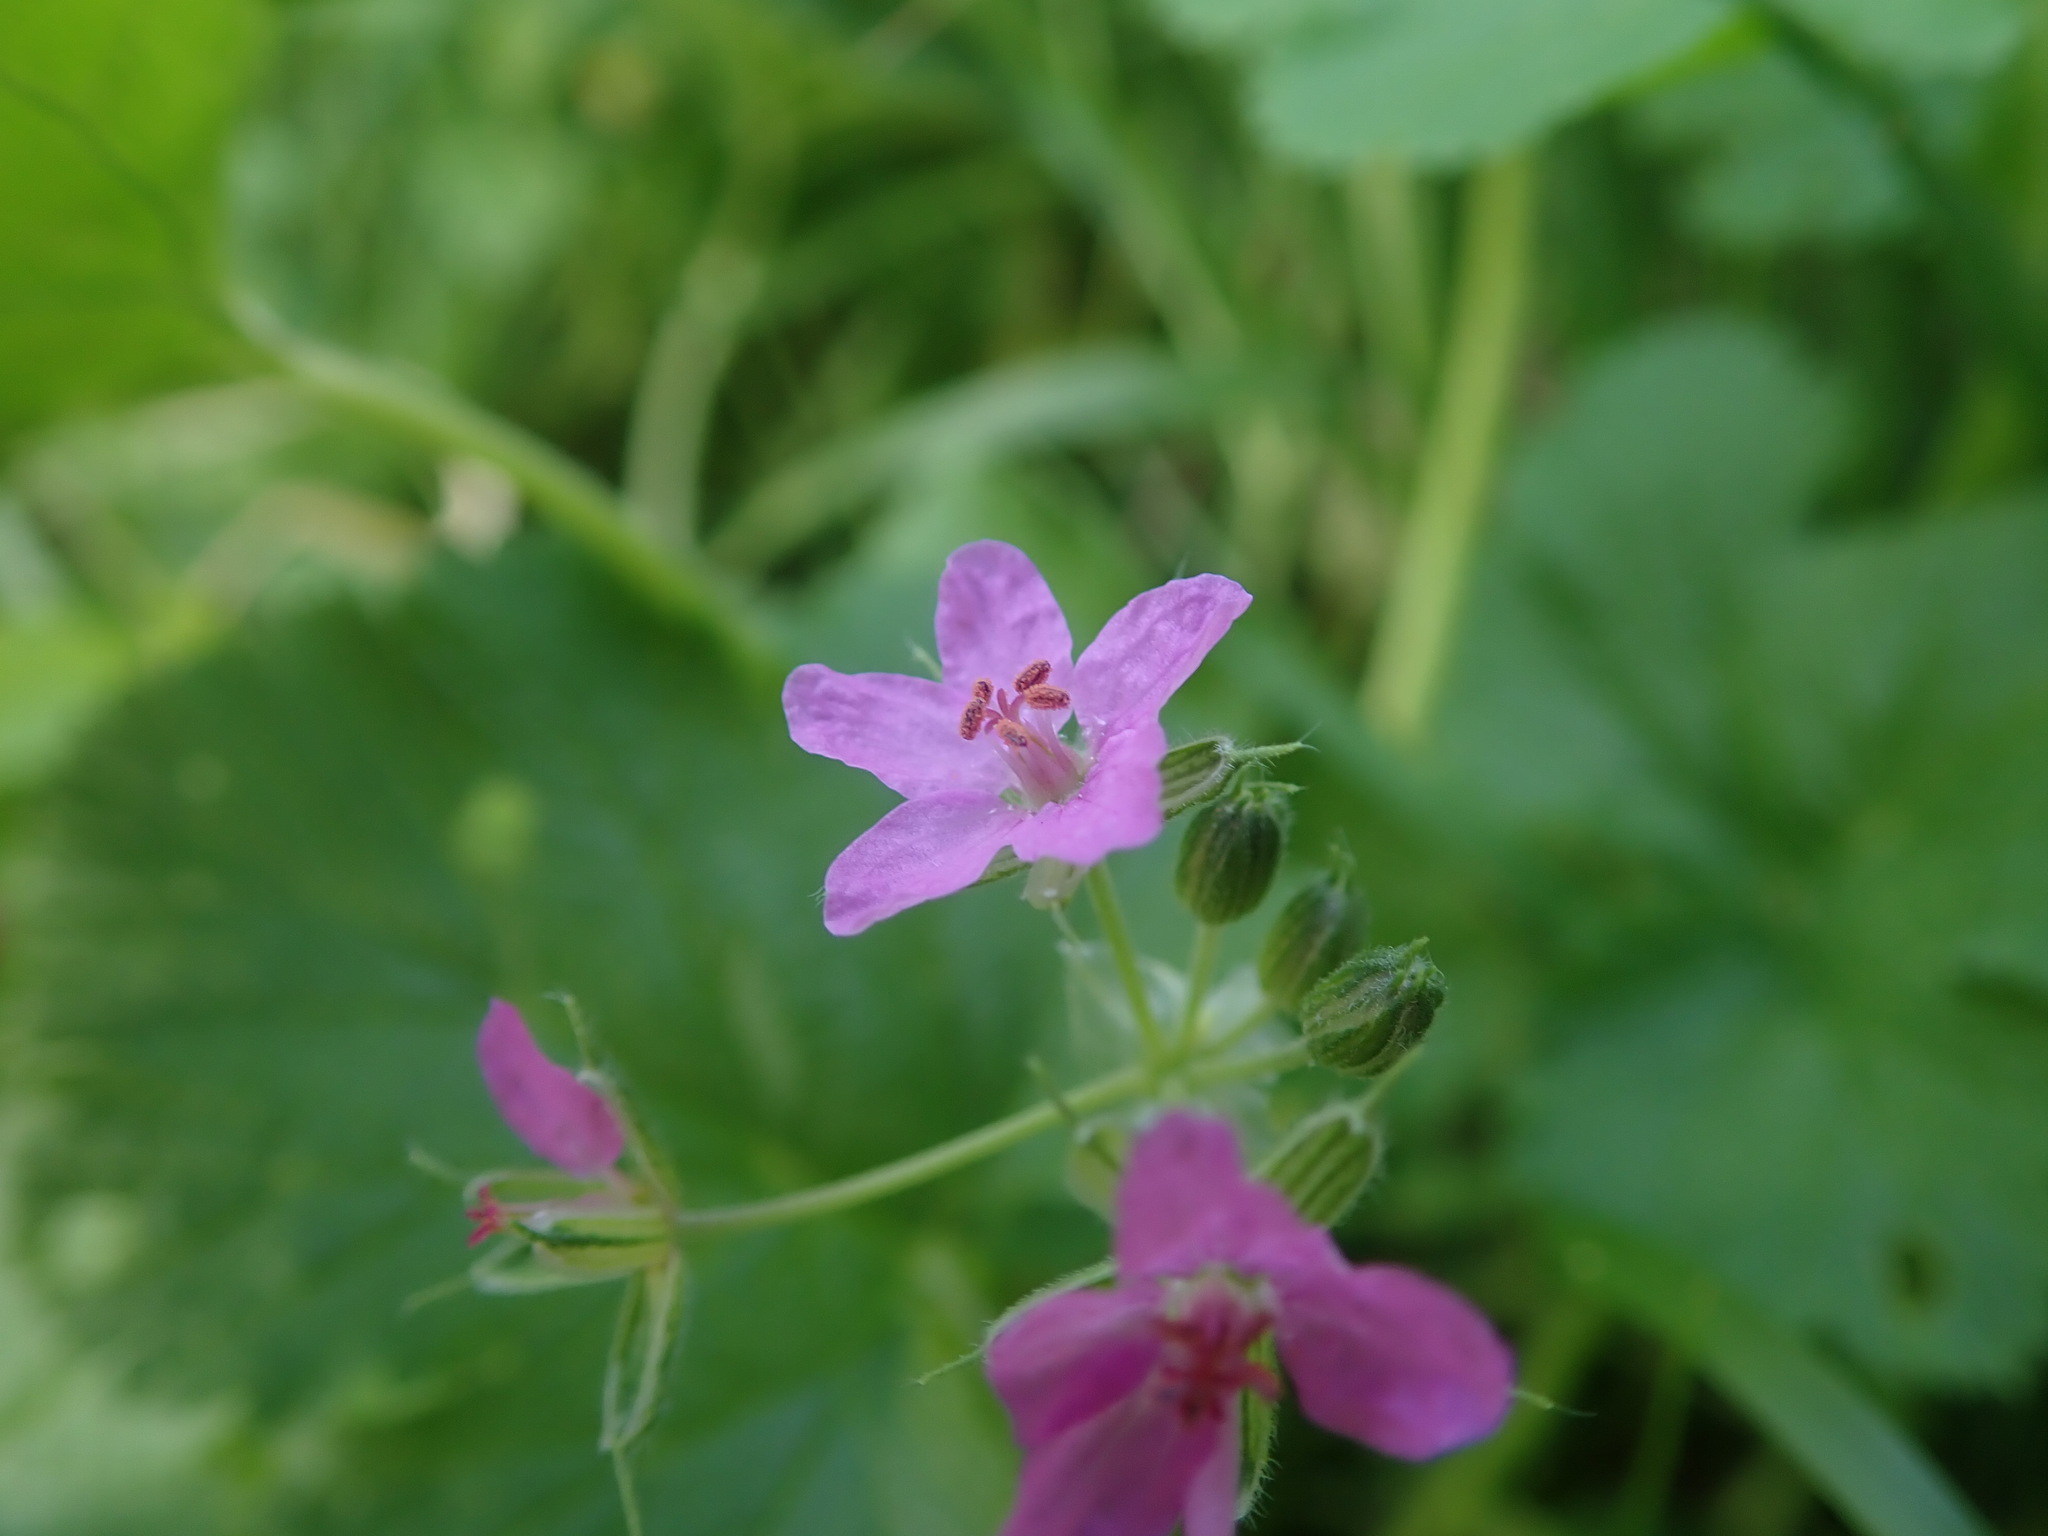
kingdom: Plantae
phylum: Tracheophyta
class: Magnoliopsida
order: Geraniales
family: Geraniaceae
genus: Erodium
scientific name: Erodium malacoides
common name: Soft stork's-bill
